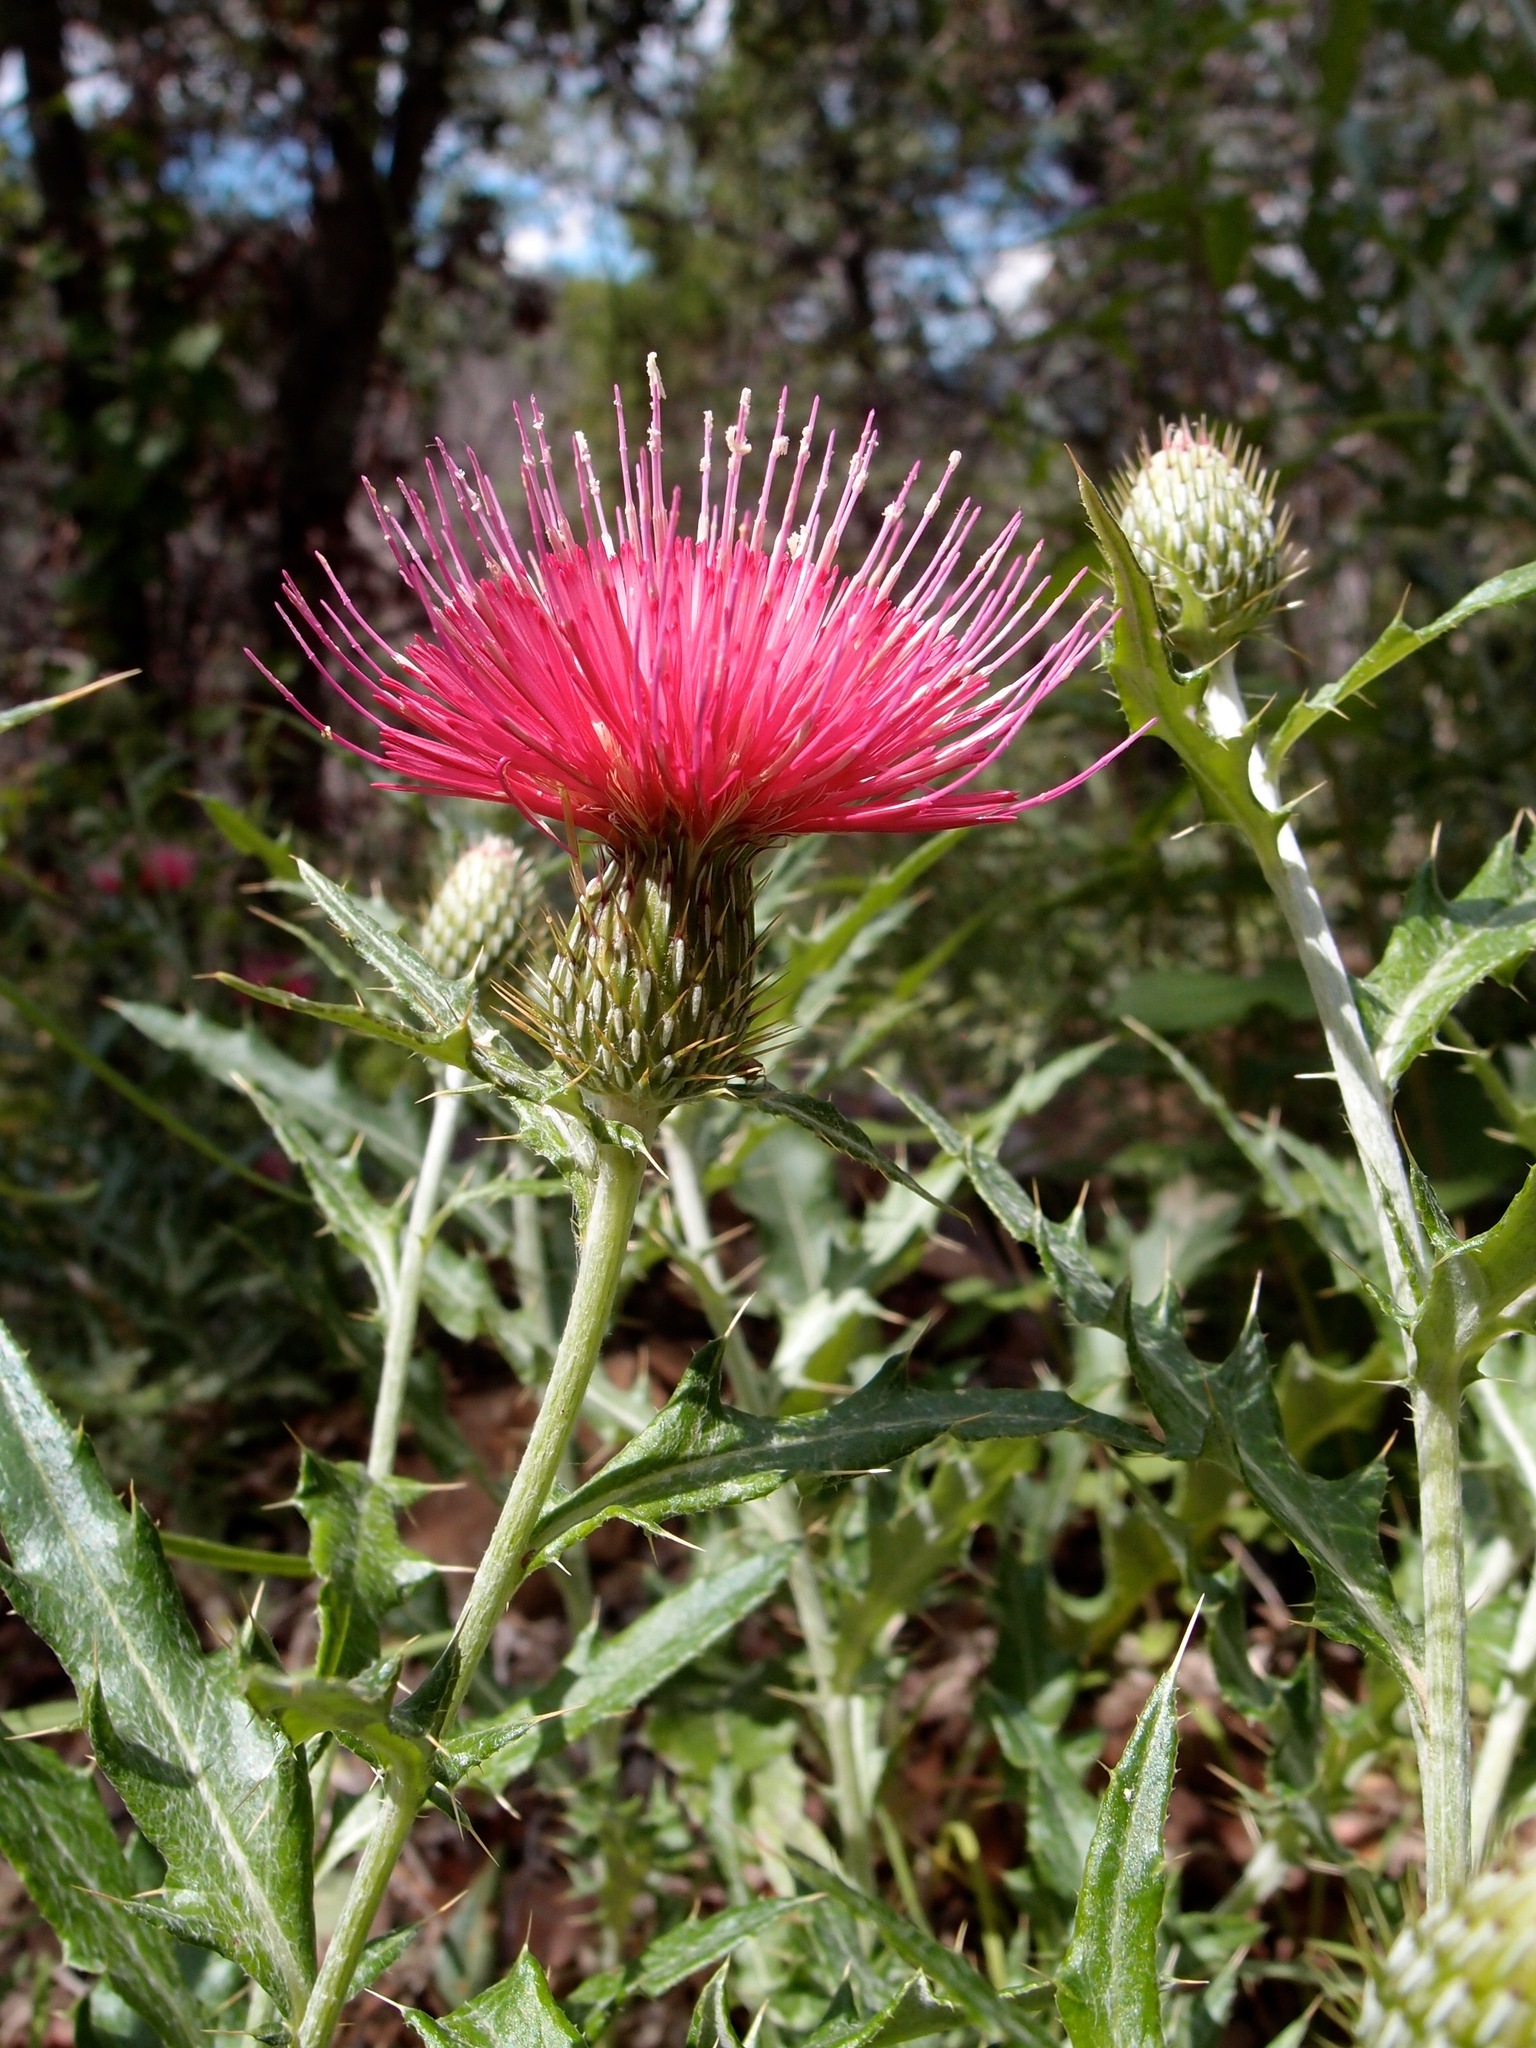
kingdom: Plantae
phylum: Tracheophyta
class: Magnoliopsida
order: Asterales
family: Asteraceae
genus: Cirsium
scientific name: Cirsium arizonicum
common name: Arizona thistle
